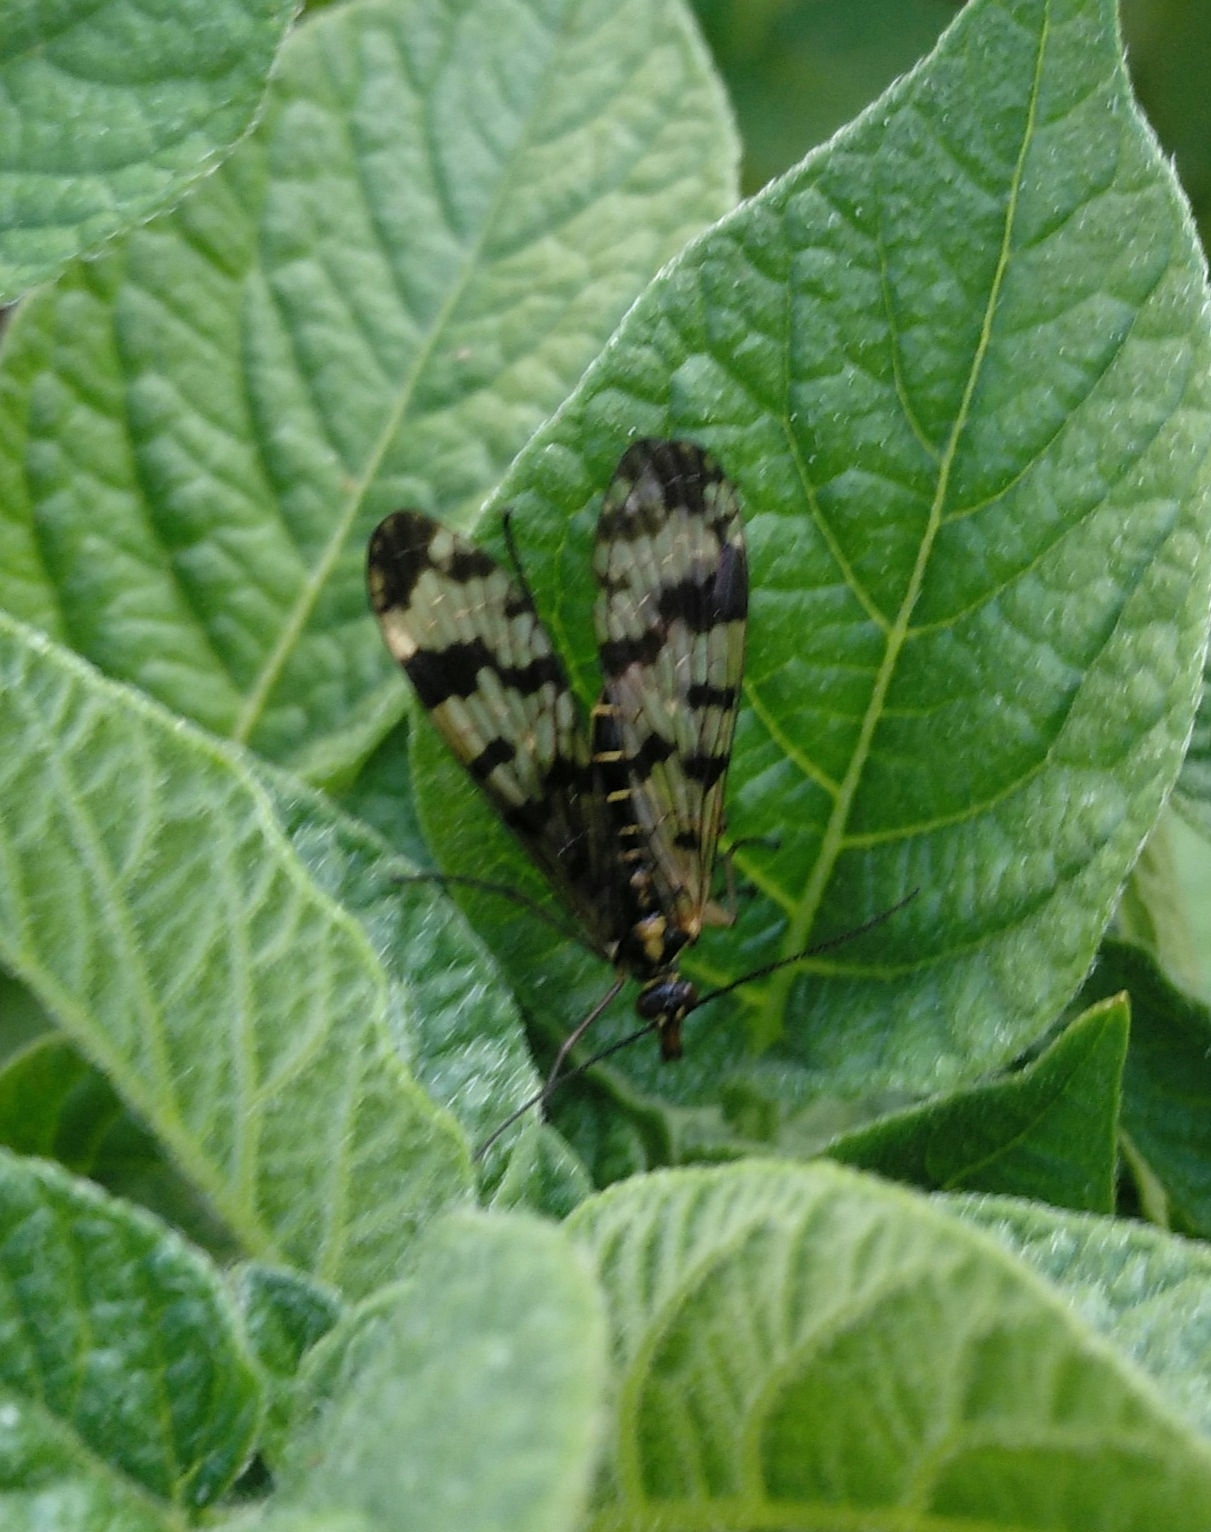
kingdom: Animalia
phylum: Arthropoda
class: Insecta
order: Mecoptera
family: Panorpidae
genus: Panorpa
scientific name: Panorpa communis
